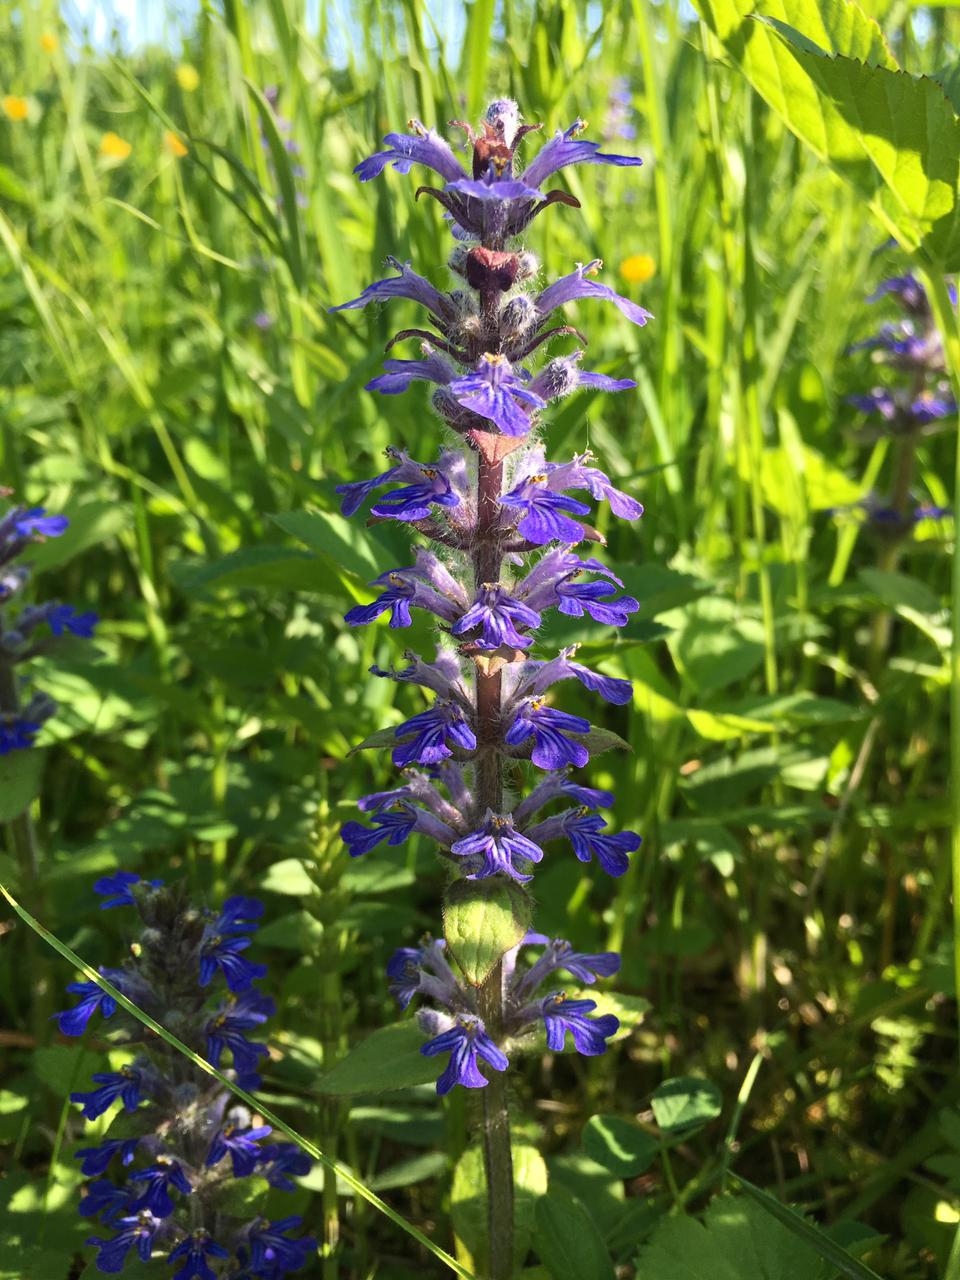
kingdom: Plantae
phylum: Tracheophyta
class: Magnoliopsida
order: Lamiales
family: Lamiaceae
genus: Ajuga
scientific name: Ajuga reptans
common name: Bugle
